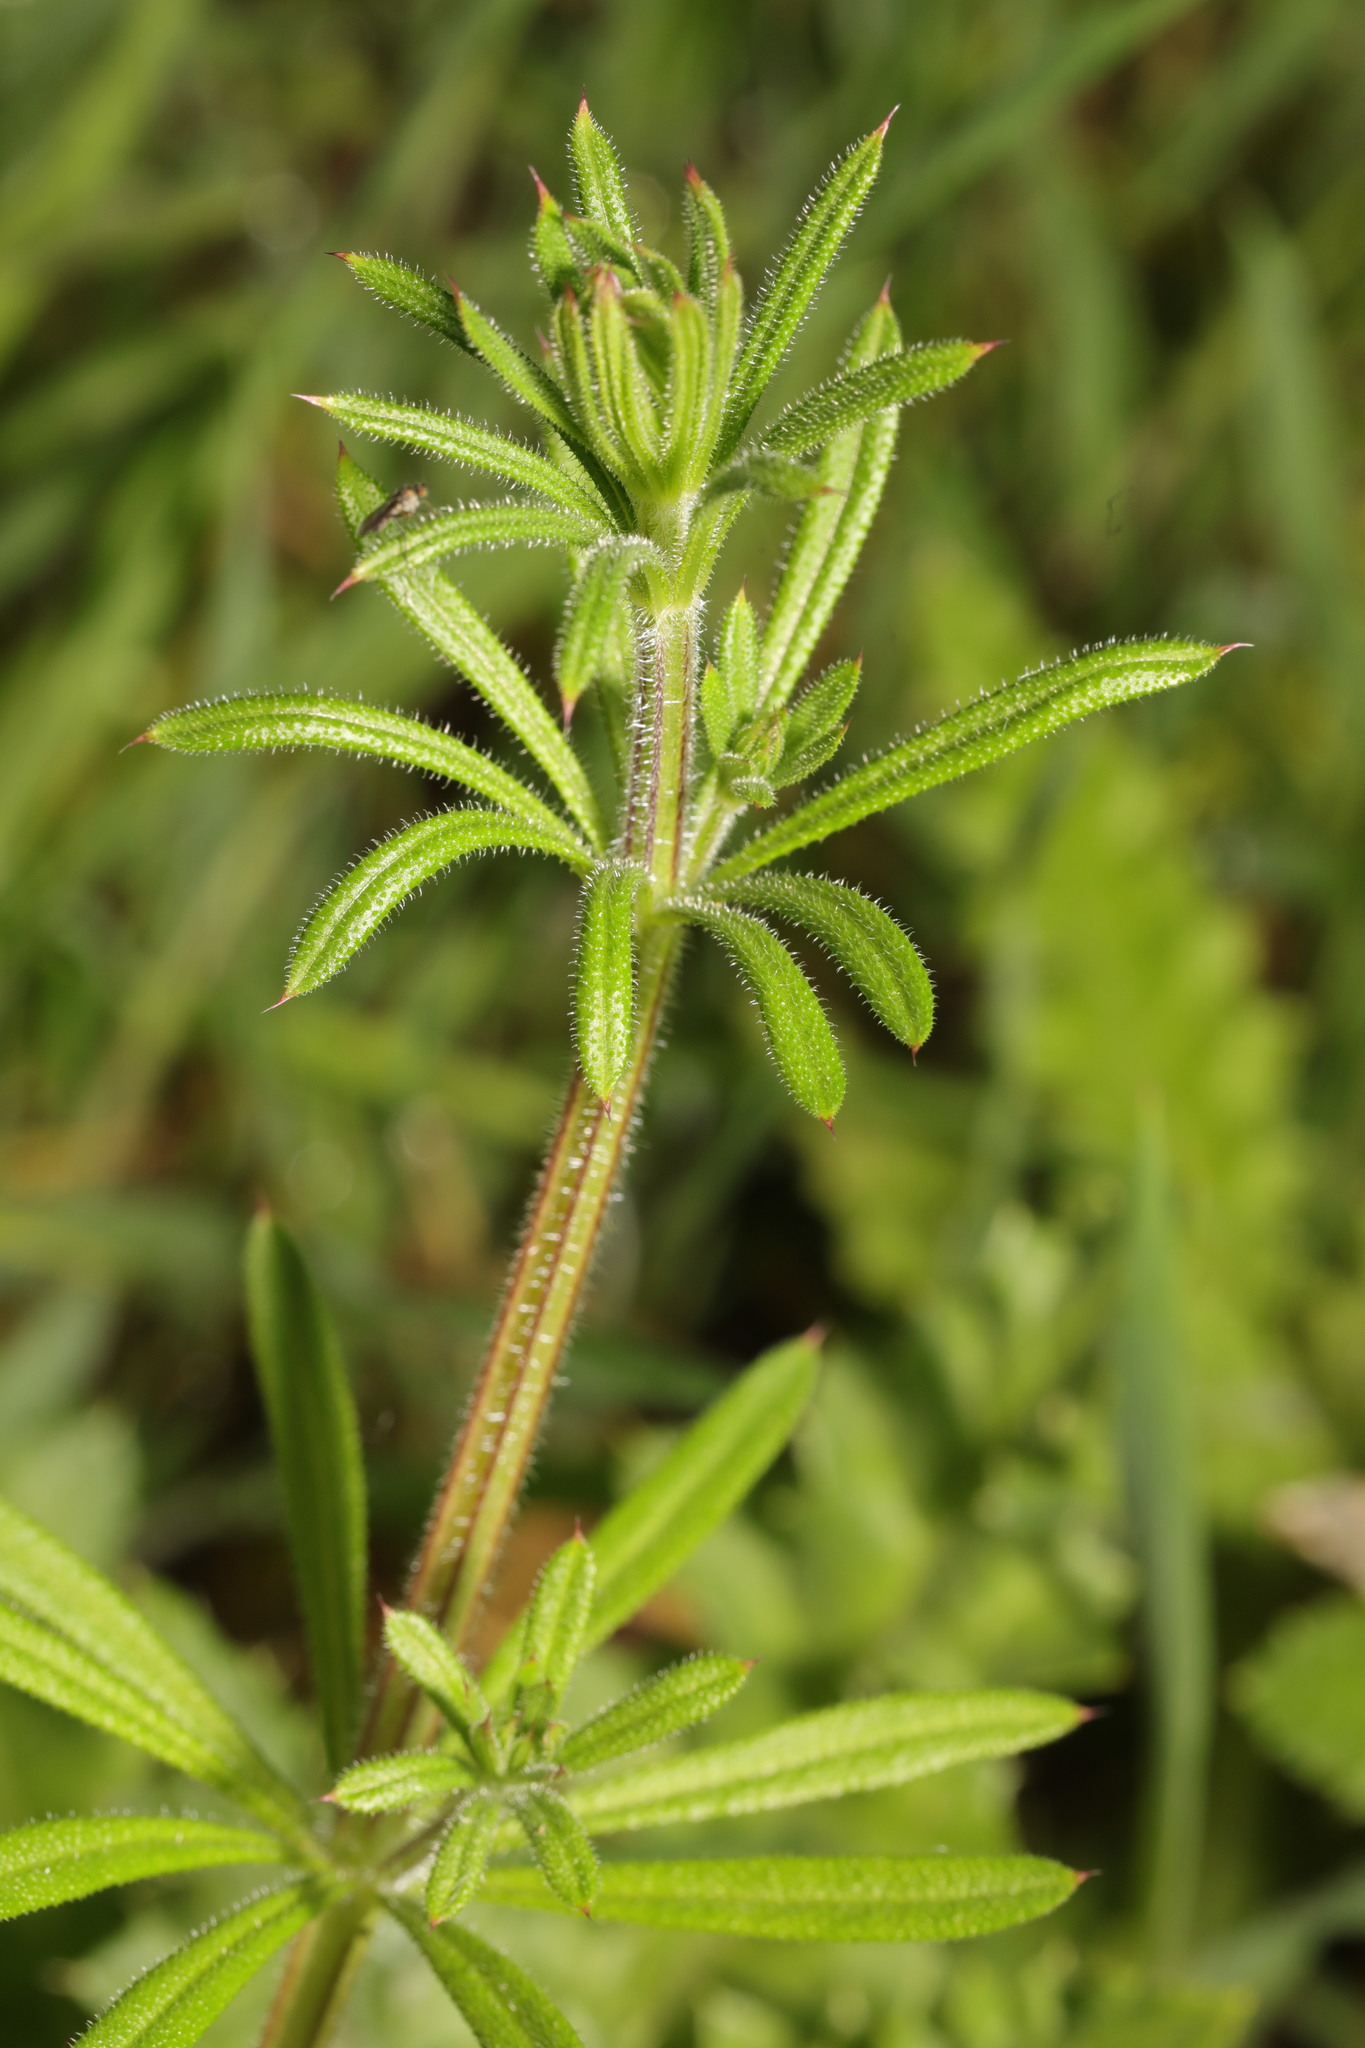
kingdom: Plantae
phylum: Tracheophyta
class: Magnoliopsida
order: Gentianales
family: Rubiaceae
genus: Galium
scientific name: Galium aparine
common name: Cleavers
